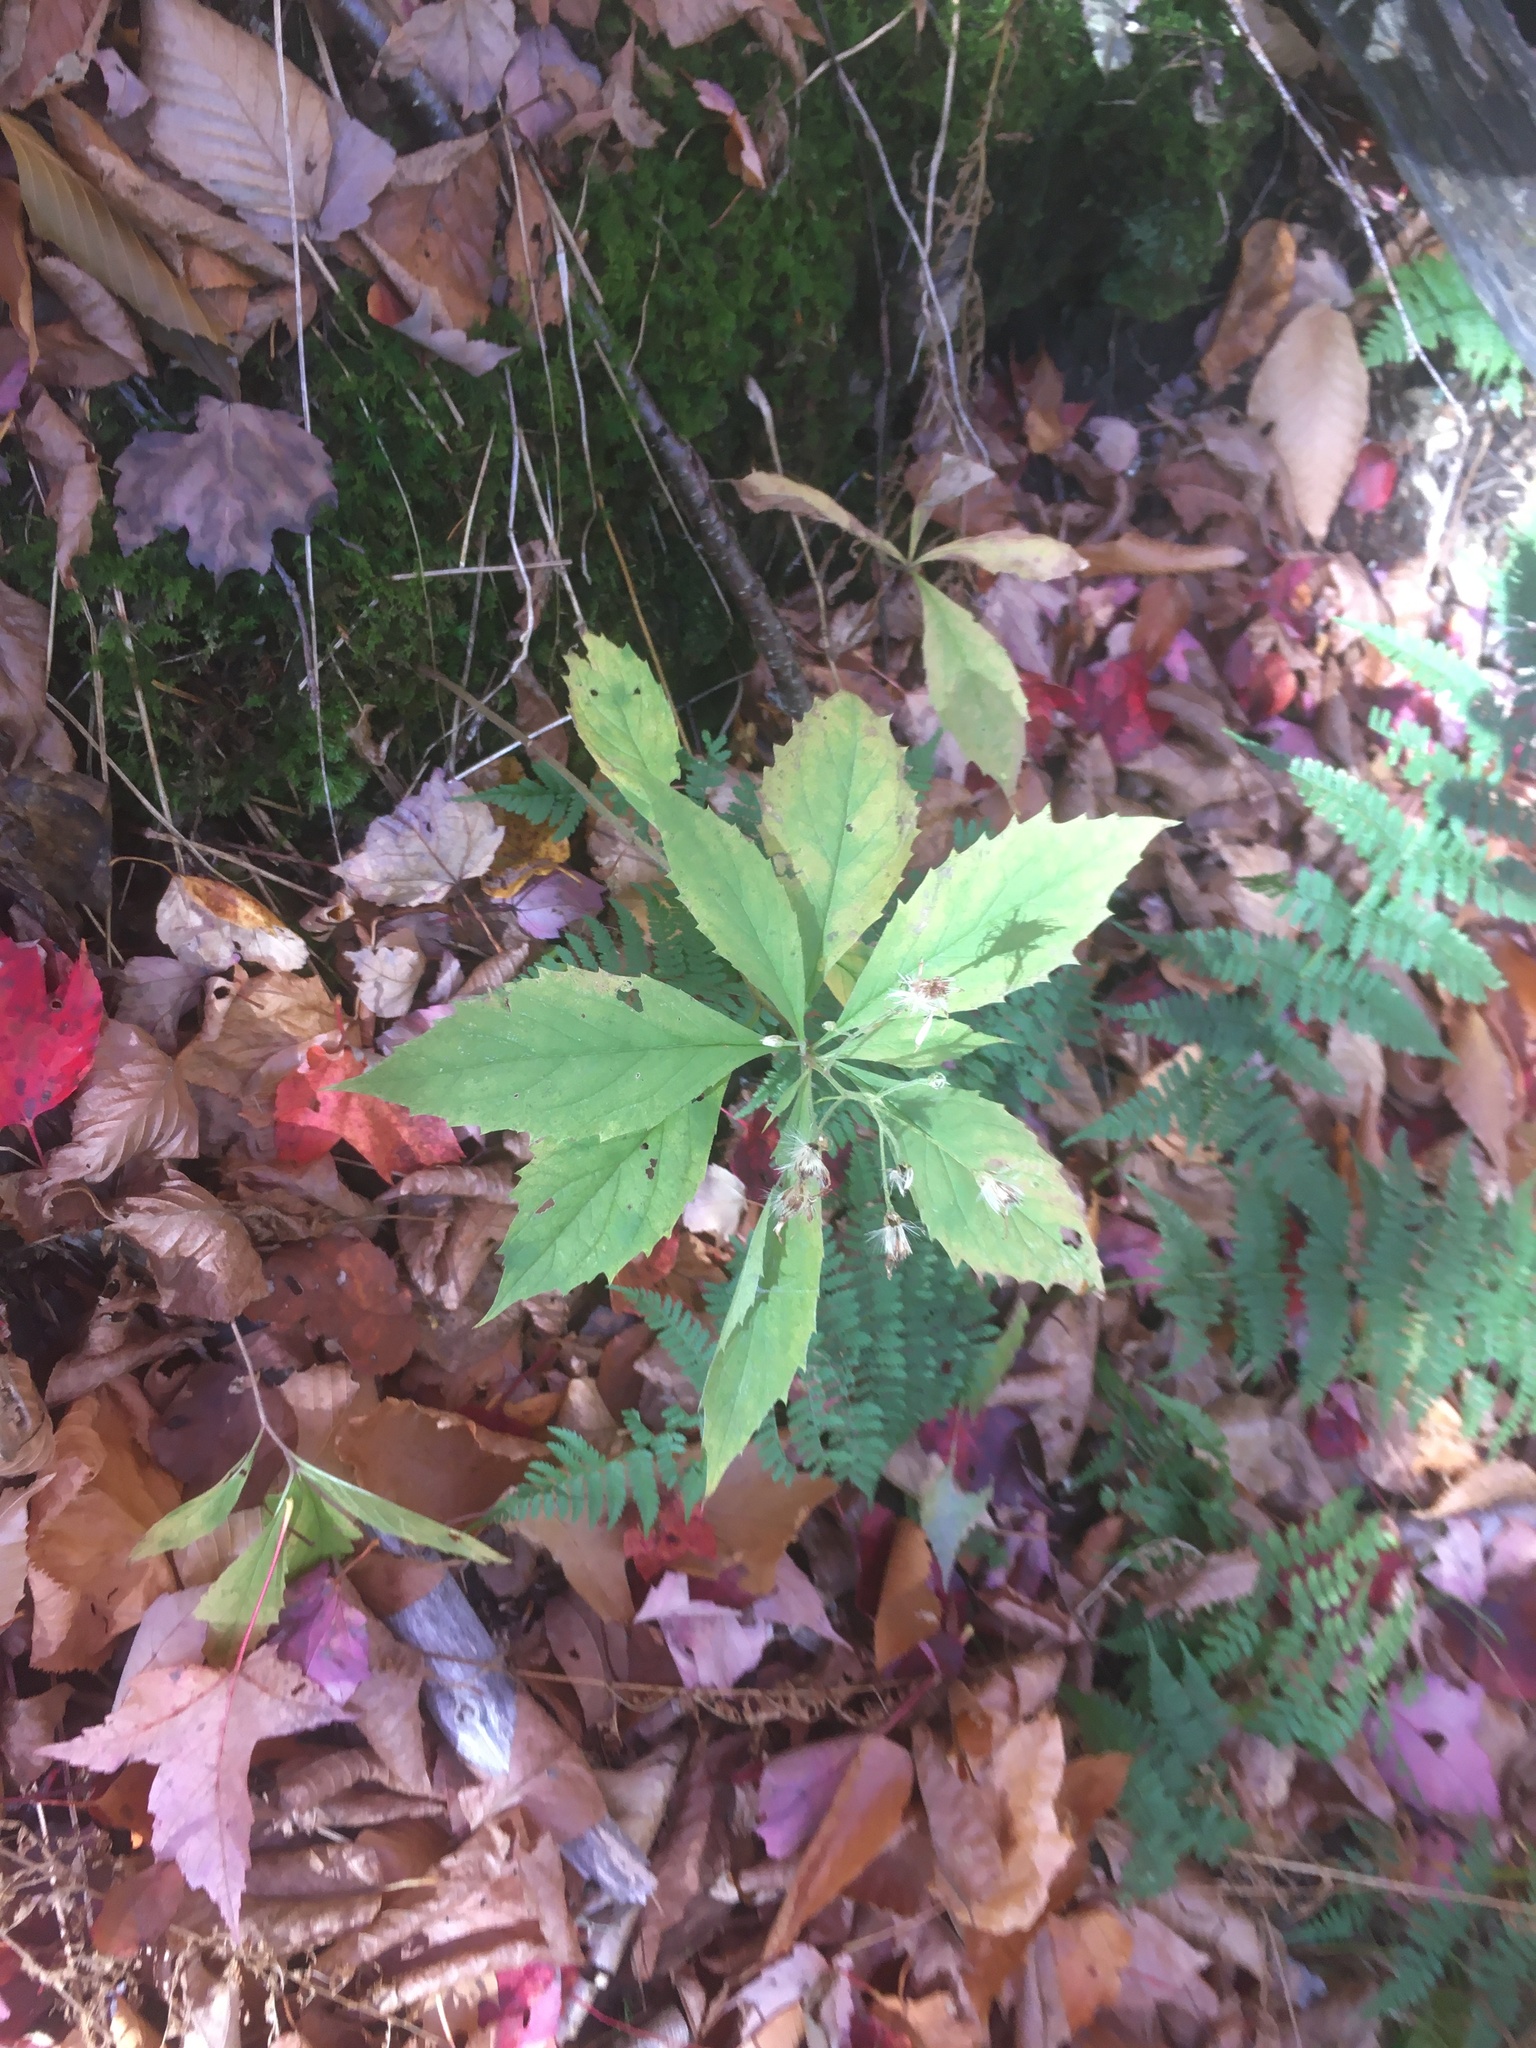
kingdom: Plantae
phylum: Tracheophyta
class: Magnoliopsida
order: Asterales
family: Asteraceae
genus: Oclemena
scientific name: Oclemena acuminata
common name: Mountain aster
